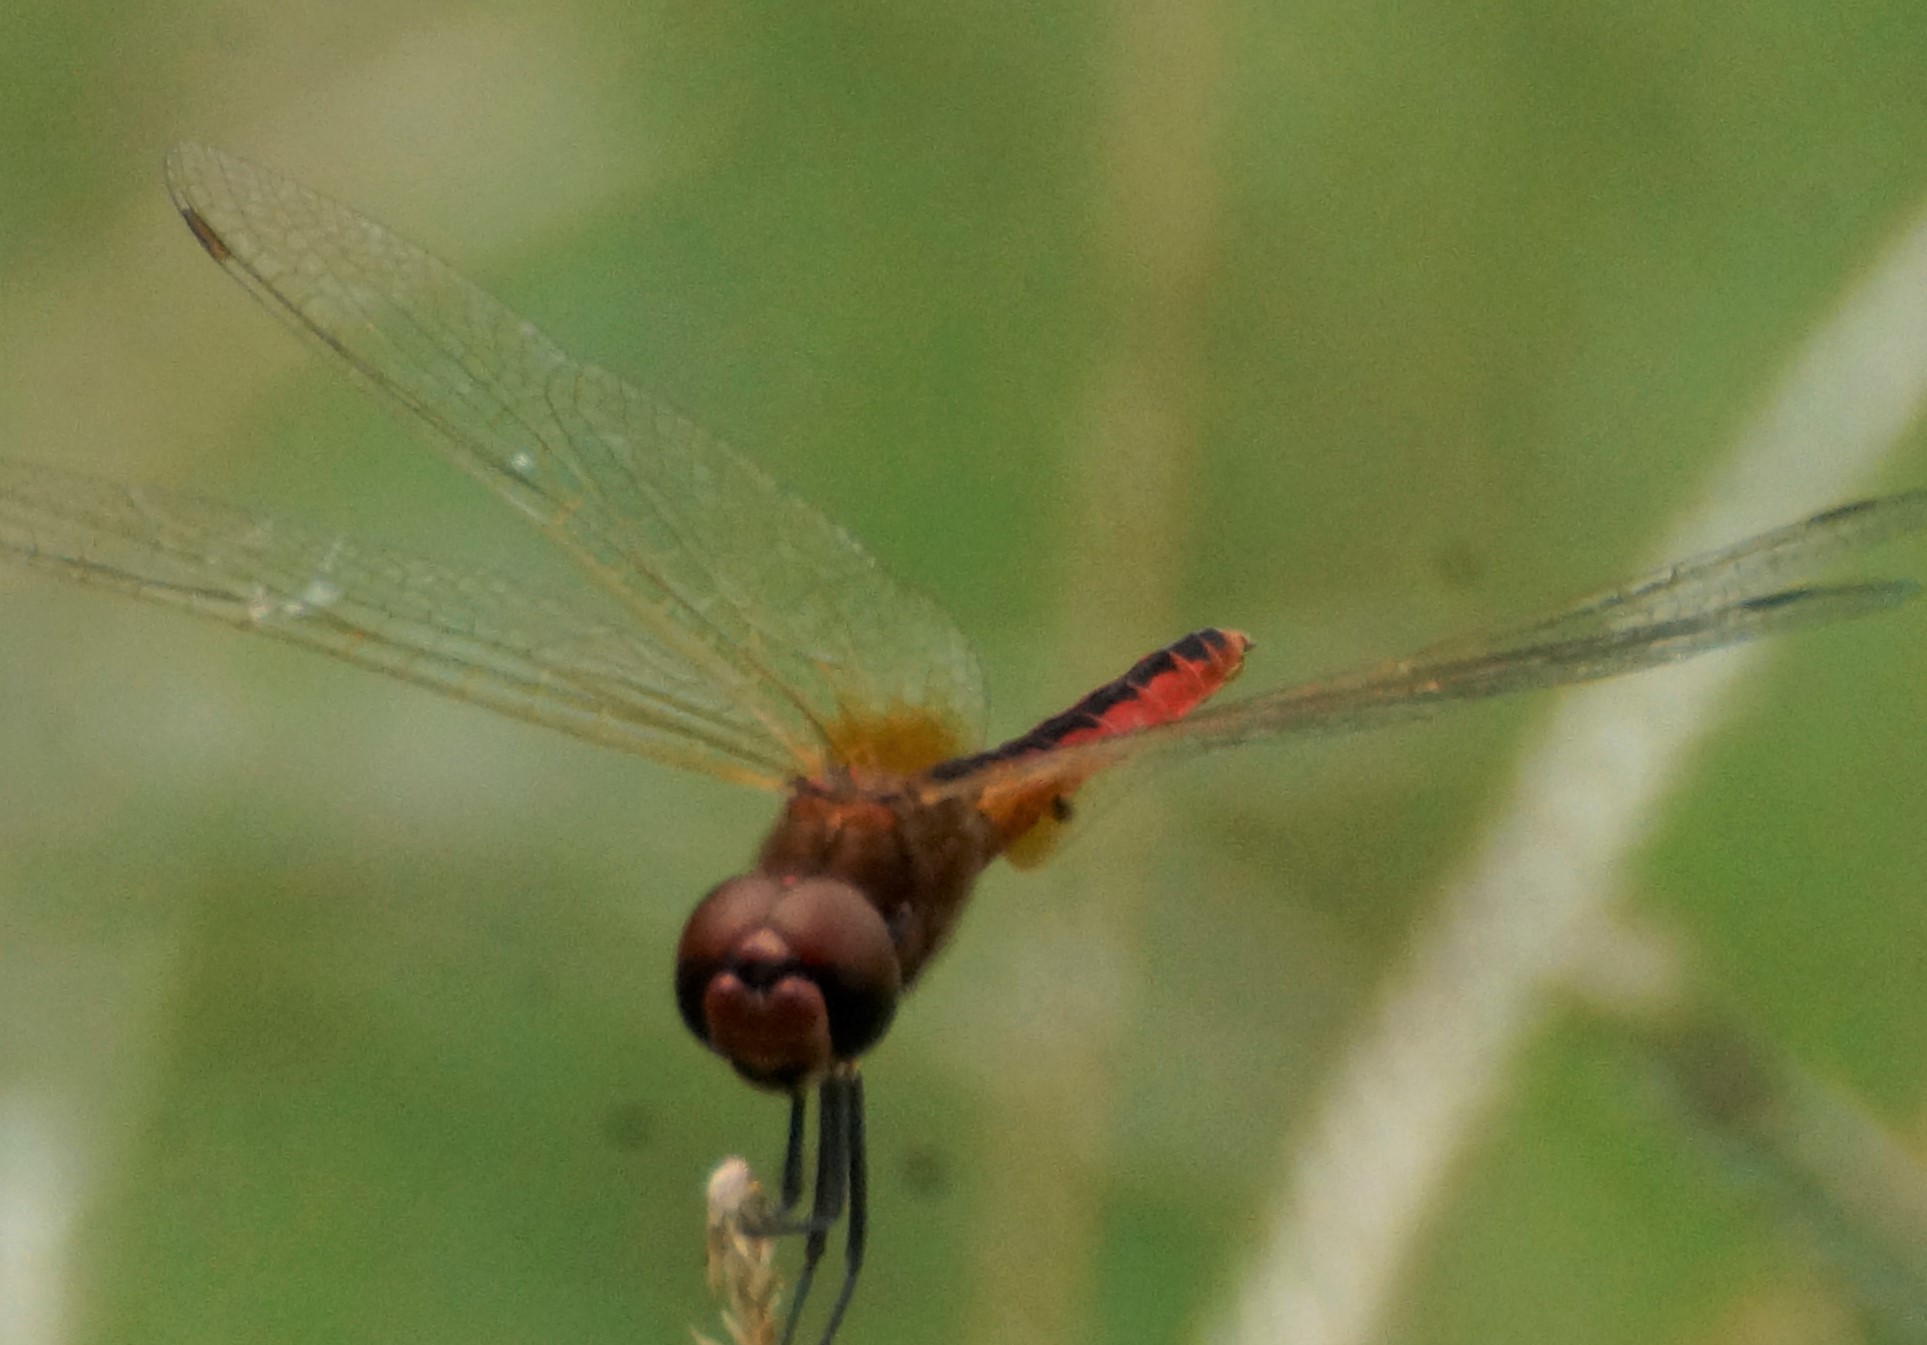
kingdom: Animalia
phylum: Arthropoda
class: Insecta
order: Odonata
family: Libellulidae
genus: Macrodiplax
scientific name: Macrodiplax cora
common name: Coastal glider
